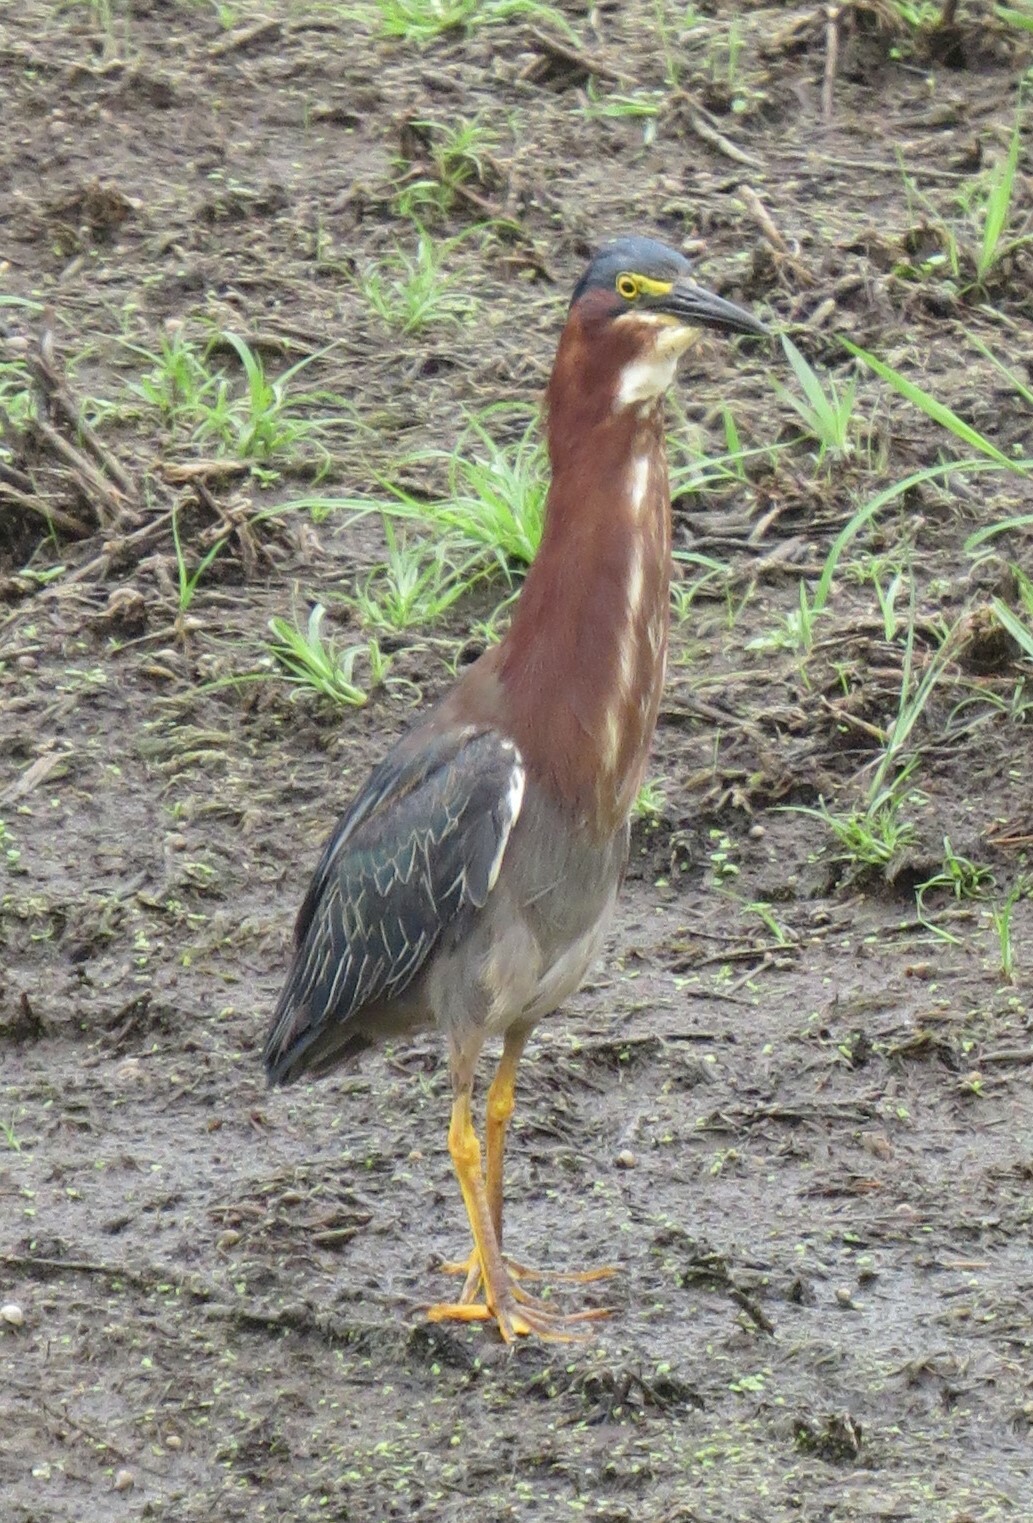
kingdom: Animalia
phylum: Chordata
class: Aves
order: Pelecaniformes
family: Ardeidae
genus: Butorides
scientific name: Butorides virescens
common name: Green heron
